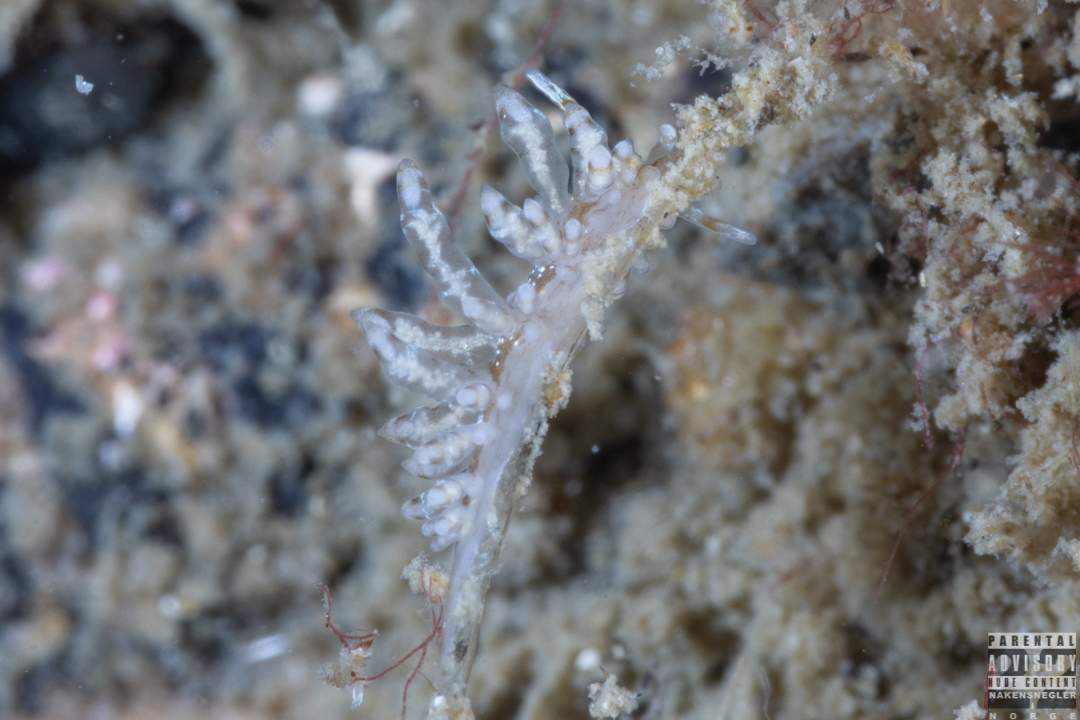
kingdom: Animalia
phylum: Mollusca
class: Gastropoda
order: Nudibranchia
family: Eubranchidae
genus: Eubranchus
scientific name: Eubranchus vittatus
